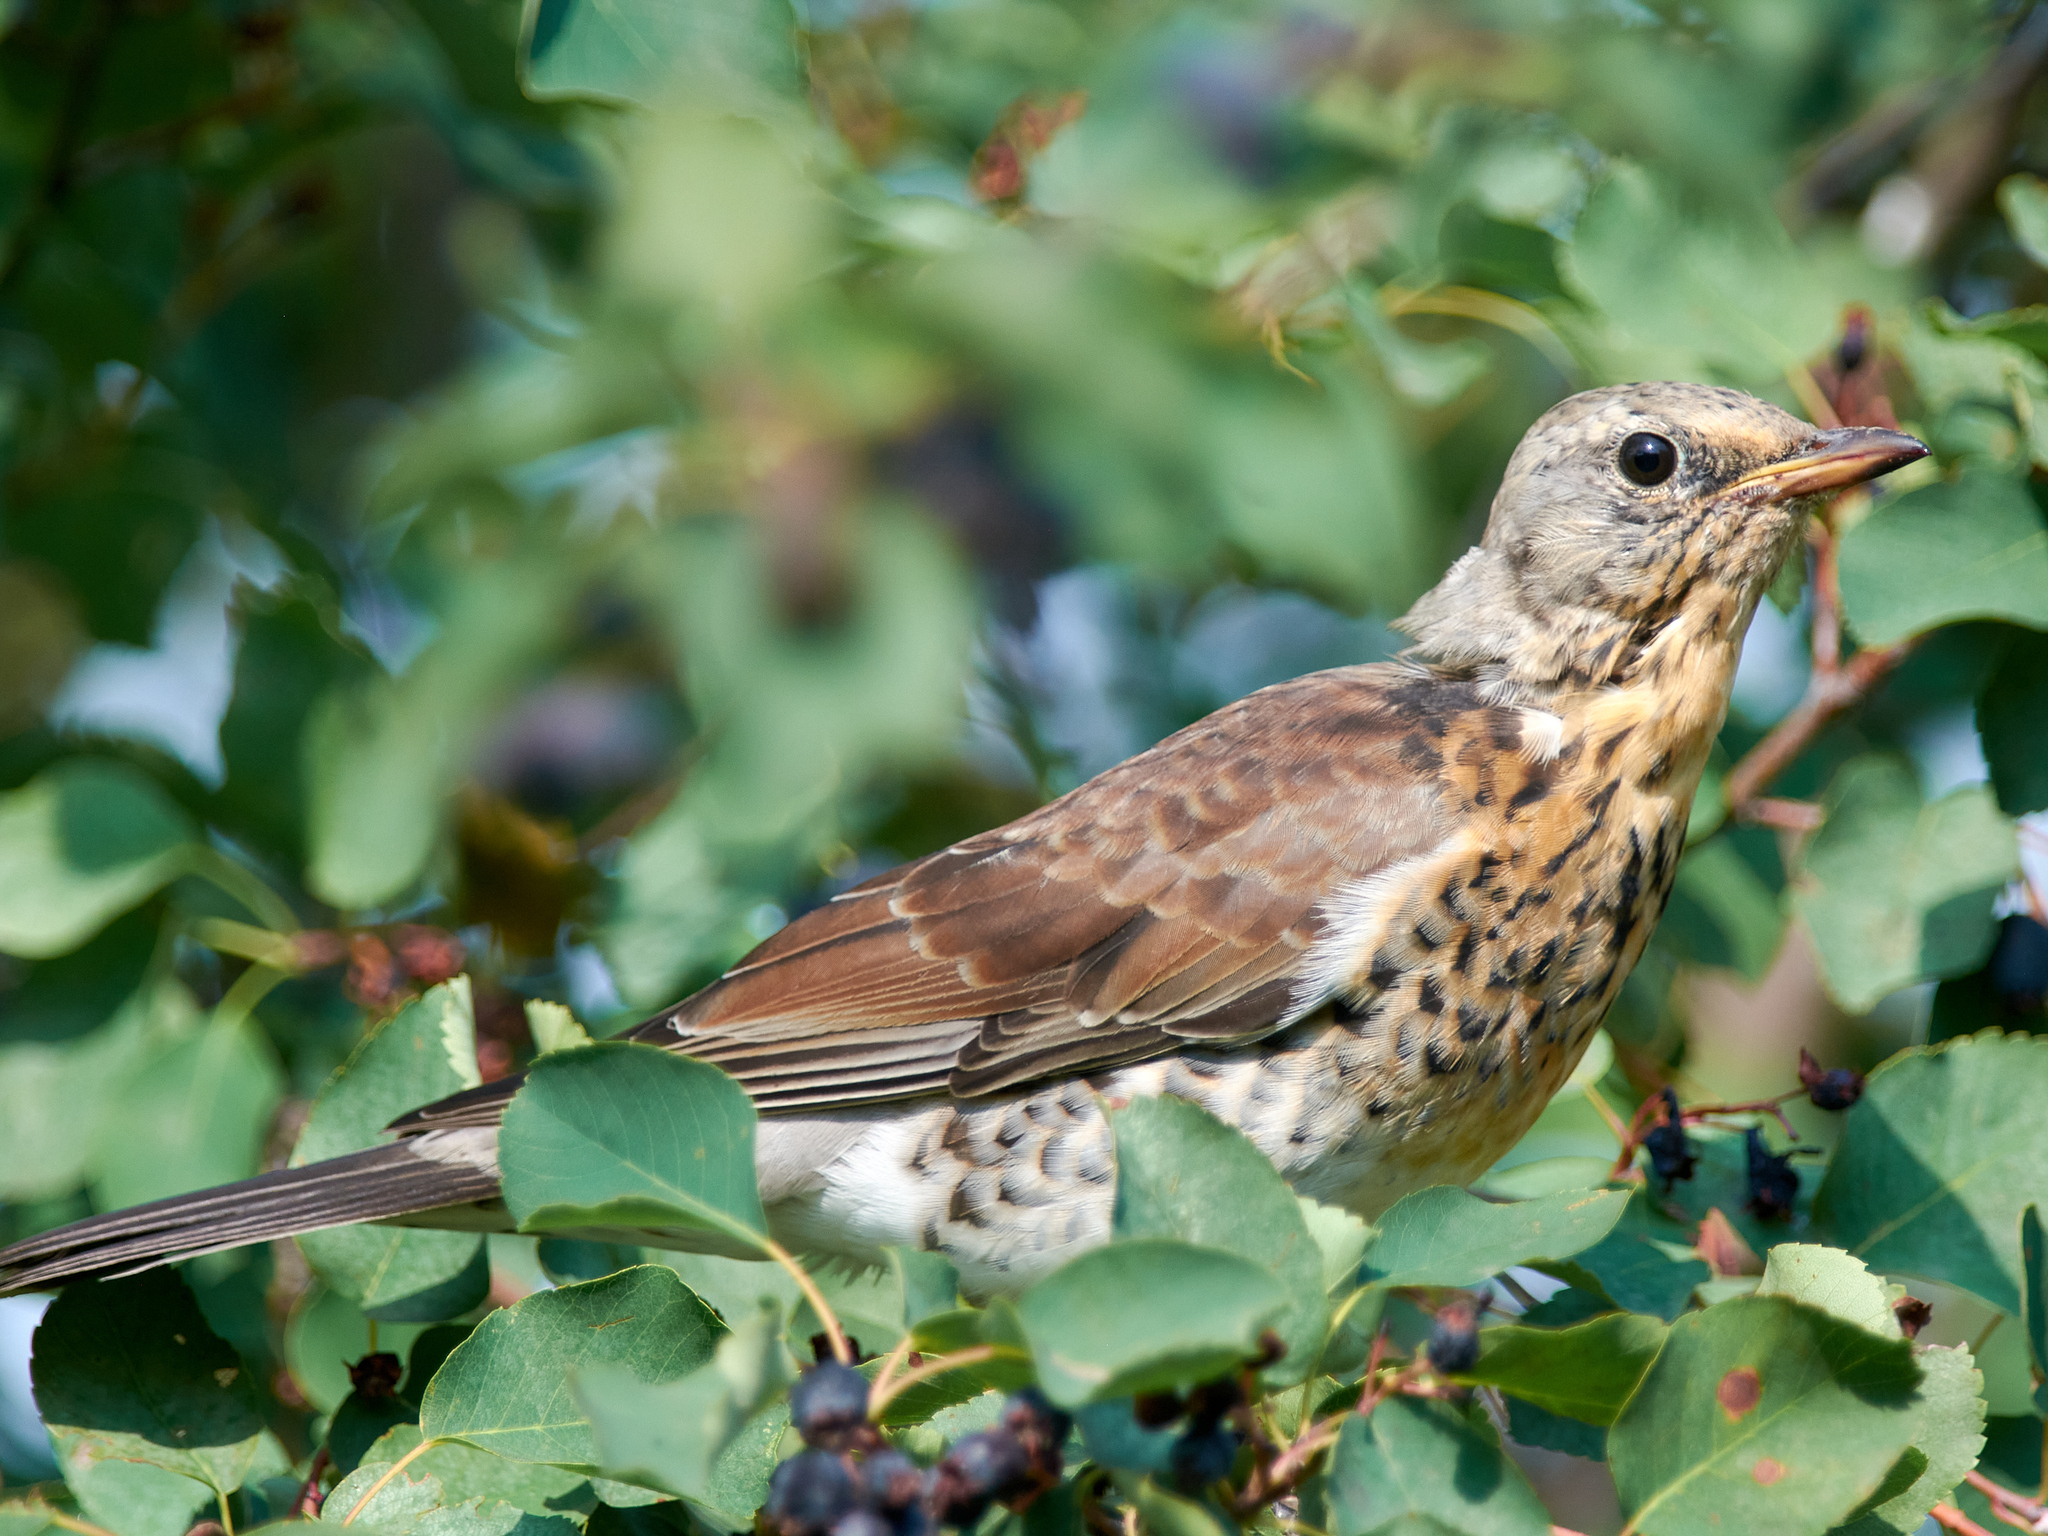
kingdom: Animalia
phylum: Chordata
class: Aves
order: Passeriformes
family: Turdidae
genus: Turdus
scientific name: Turdus pilaris
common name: Fieldfare
